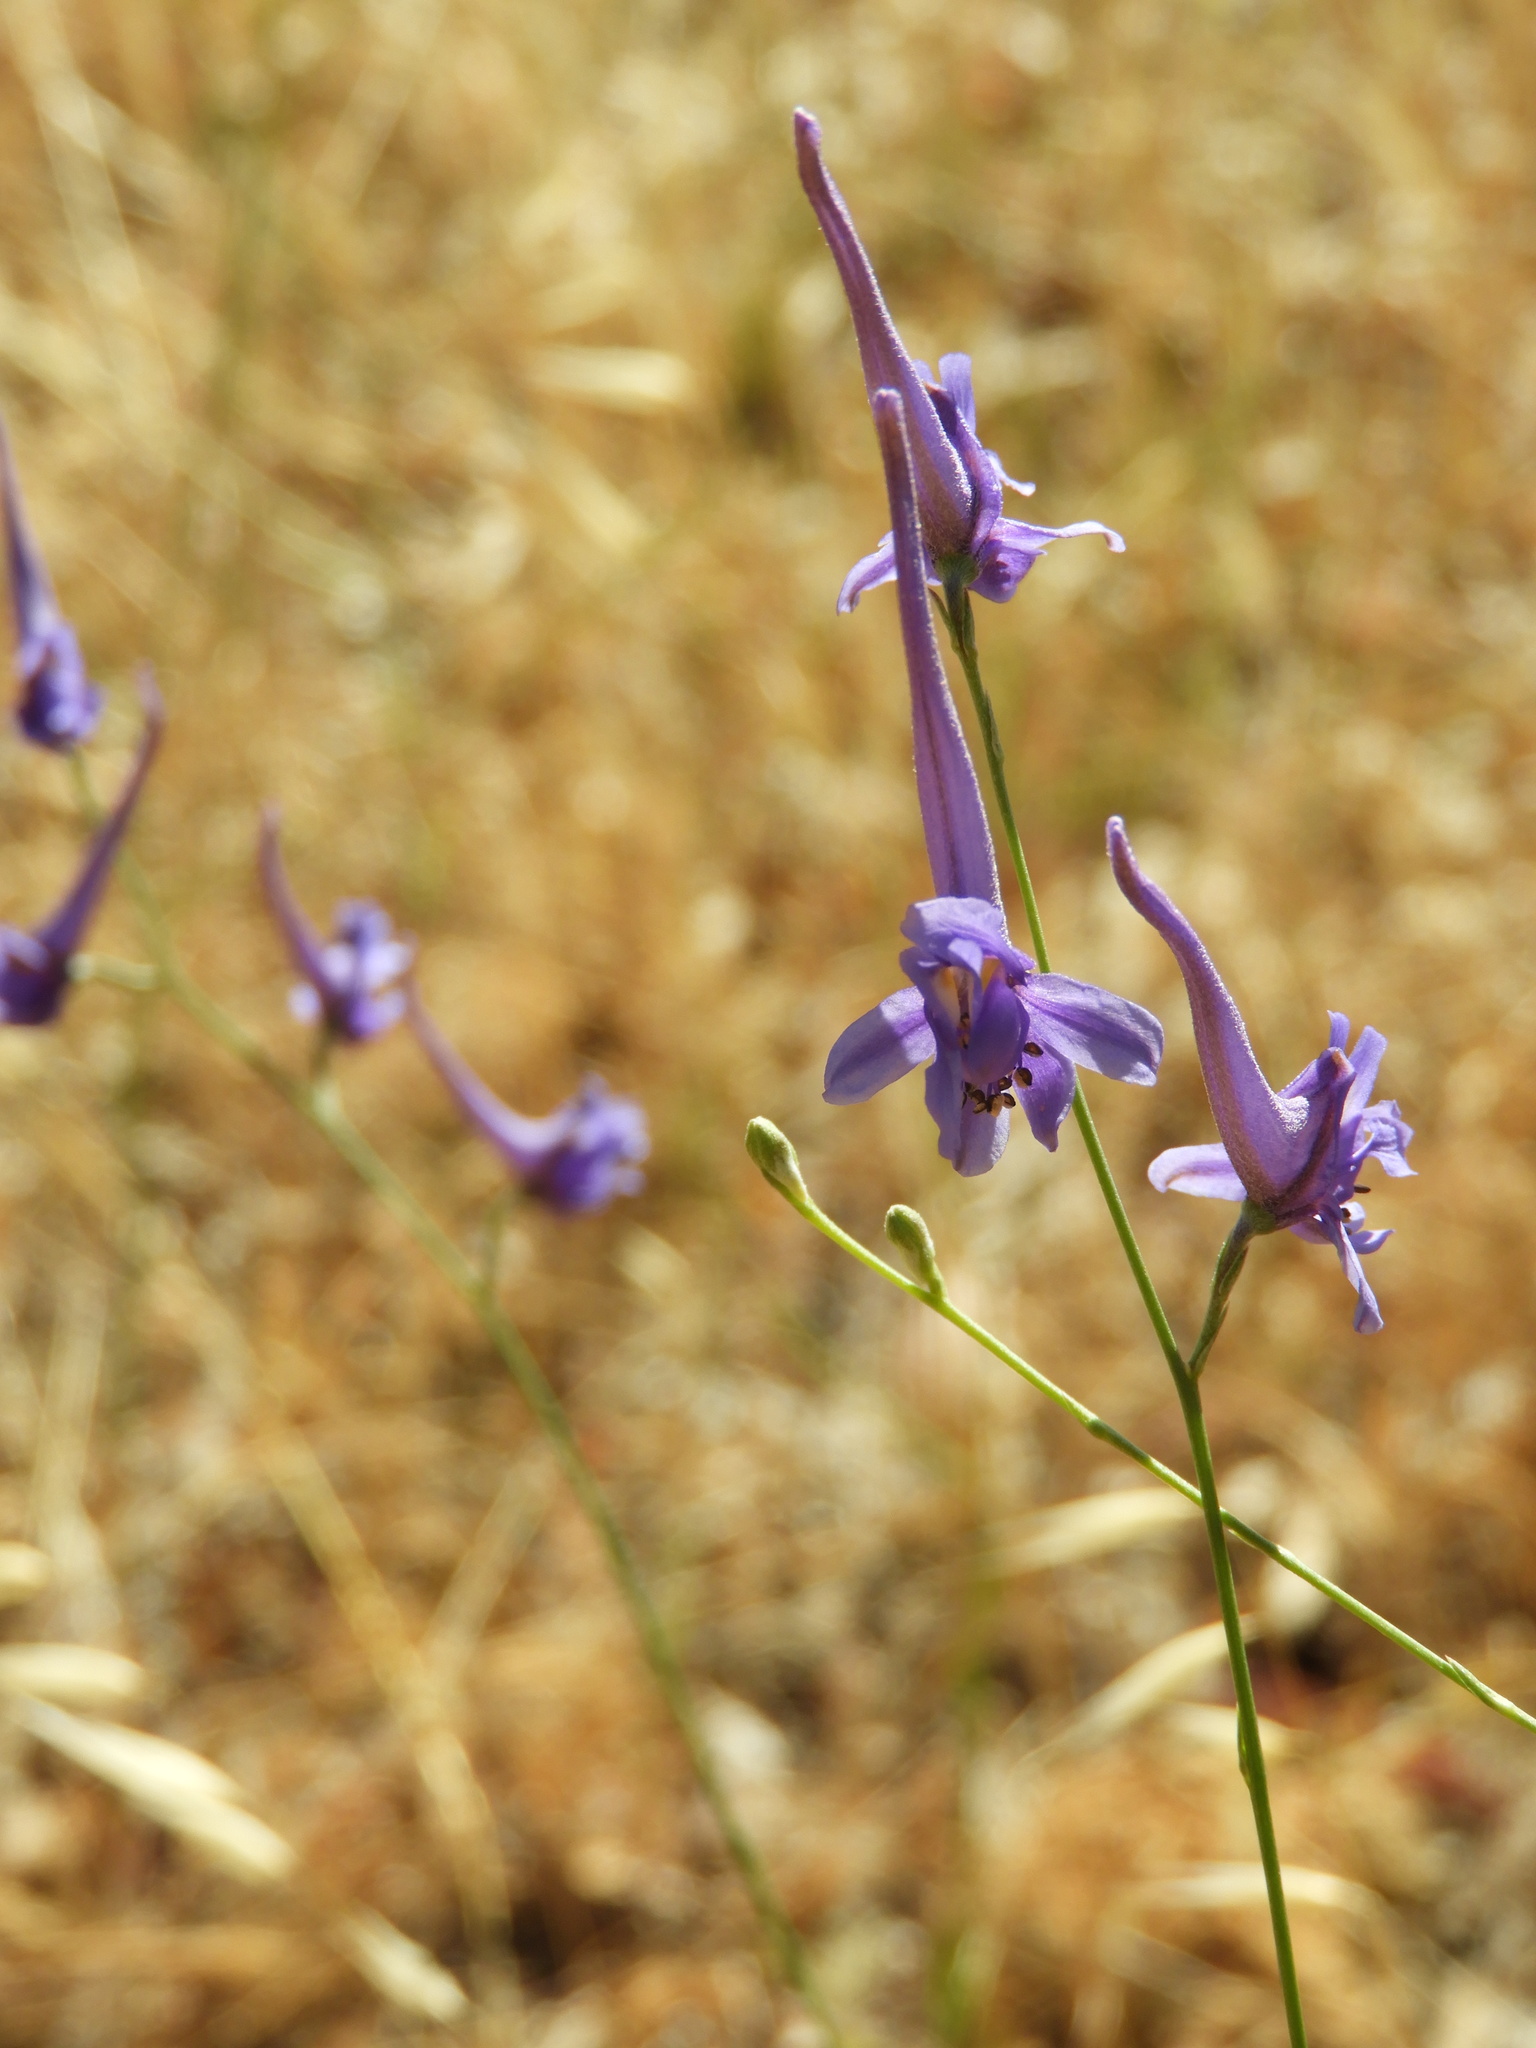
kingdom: Plantae
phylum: Tracheophyta
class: Magnoliopsida
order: Ranunculales
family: Ranunculaceae
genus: Delphinium
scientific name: Delphinium gracile
